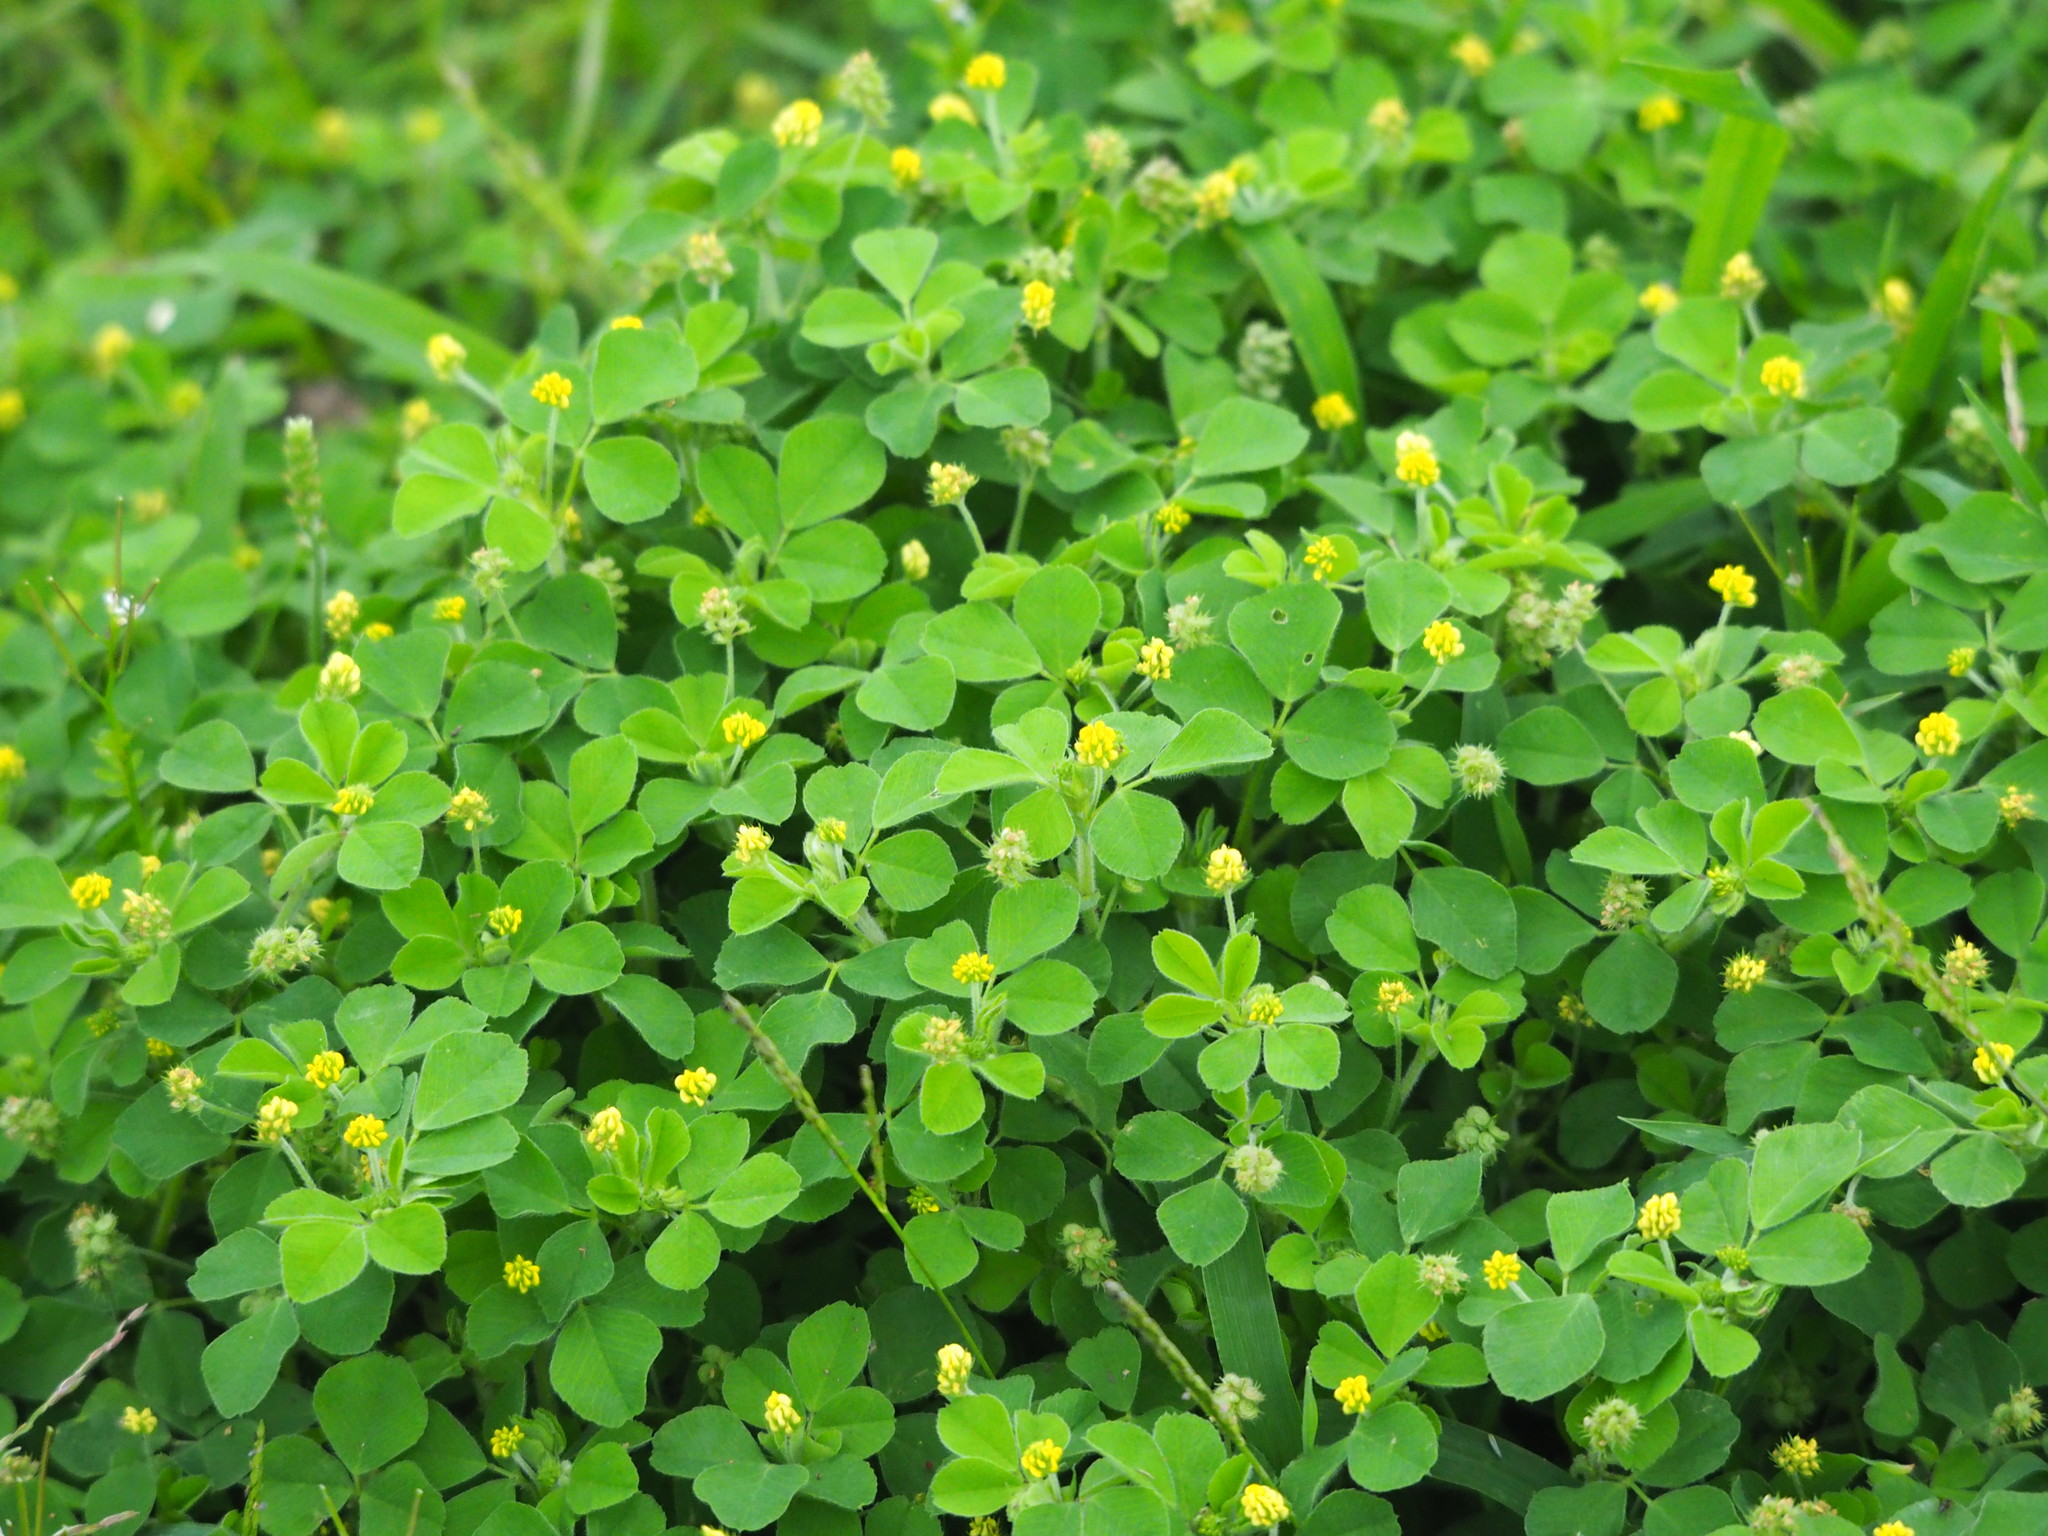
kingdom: Plantae
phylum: Tracheophyta
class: Magnoliopsida
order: Fabales
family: Fabaceae
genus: Medicago
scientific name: Medicago lupulina
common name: Black medick
